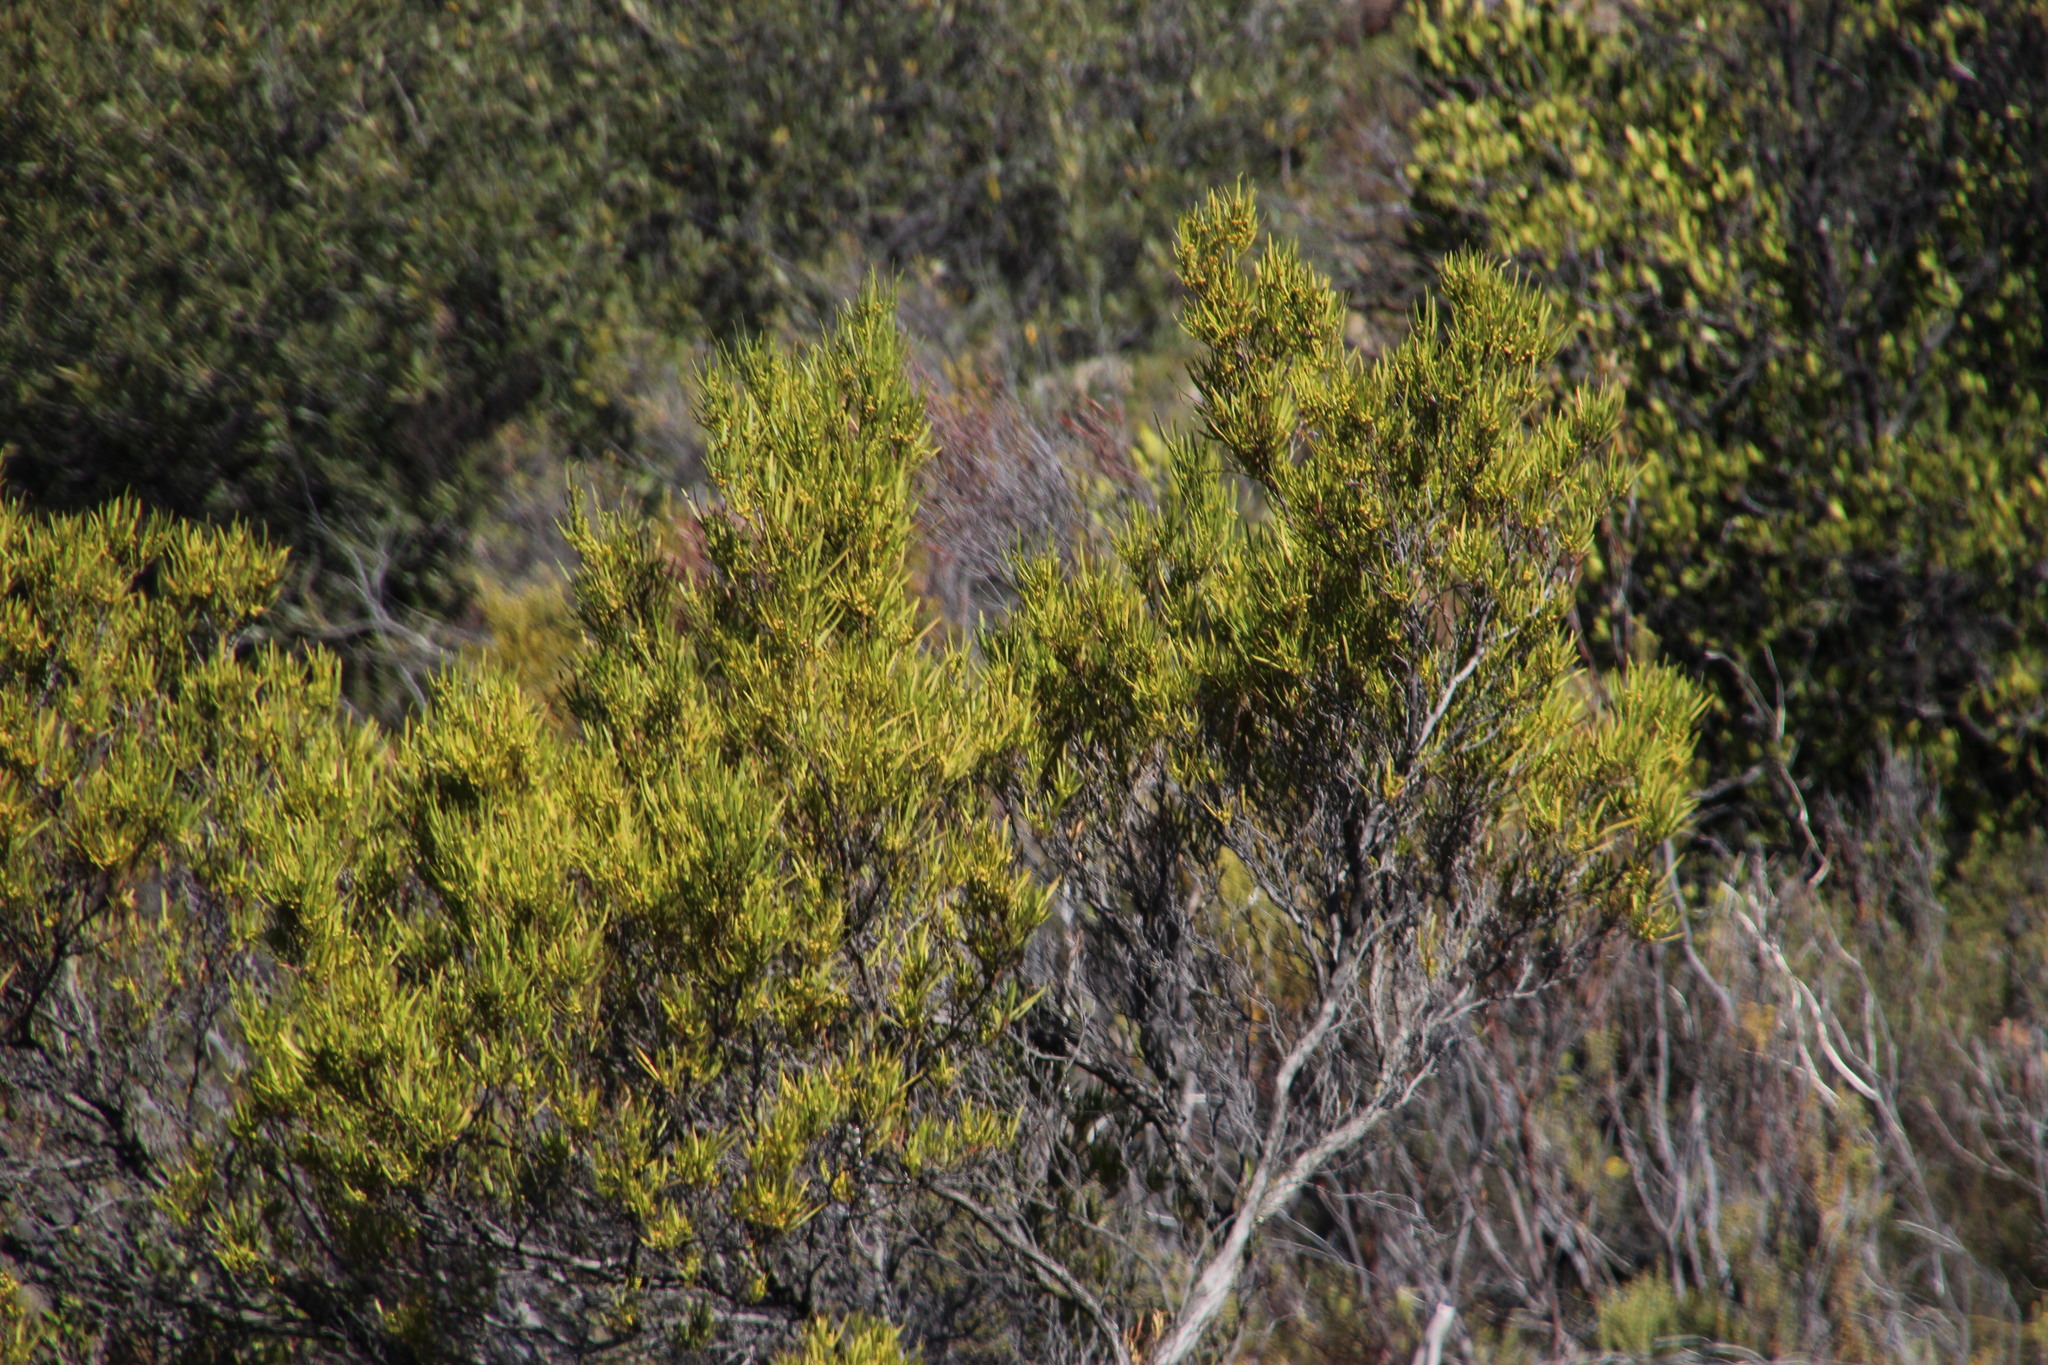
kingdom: Plantae
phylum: Tracheophyta
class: Magnoliopsida
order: Sapindales
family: Sapindaceae
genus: Dodonaea
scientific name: Dodonaea viscosa
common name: Hopbush
